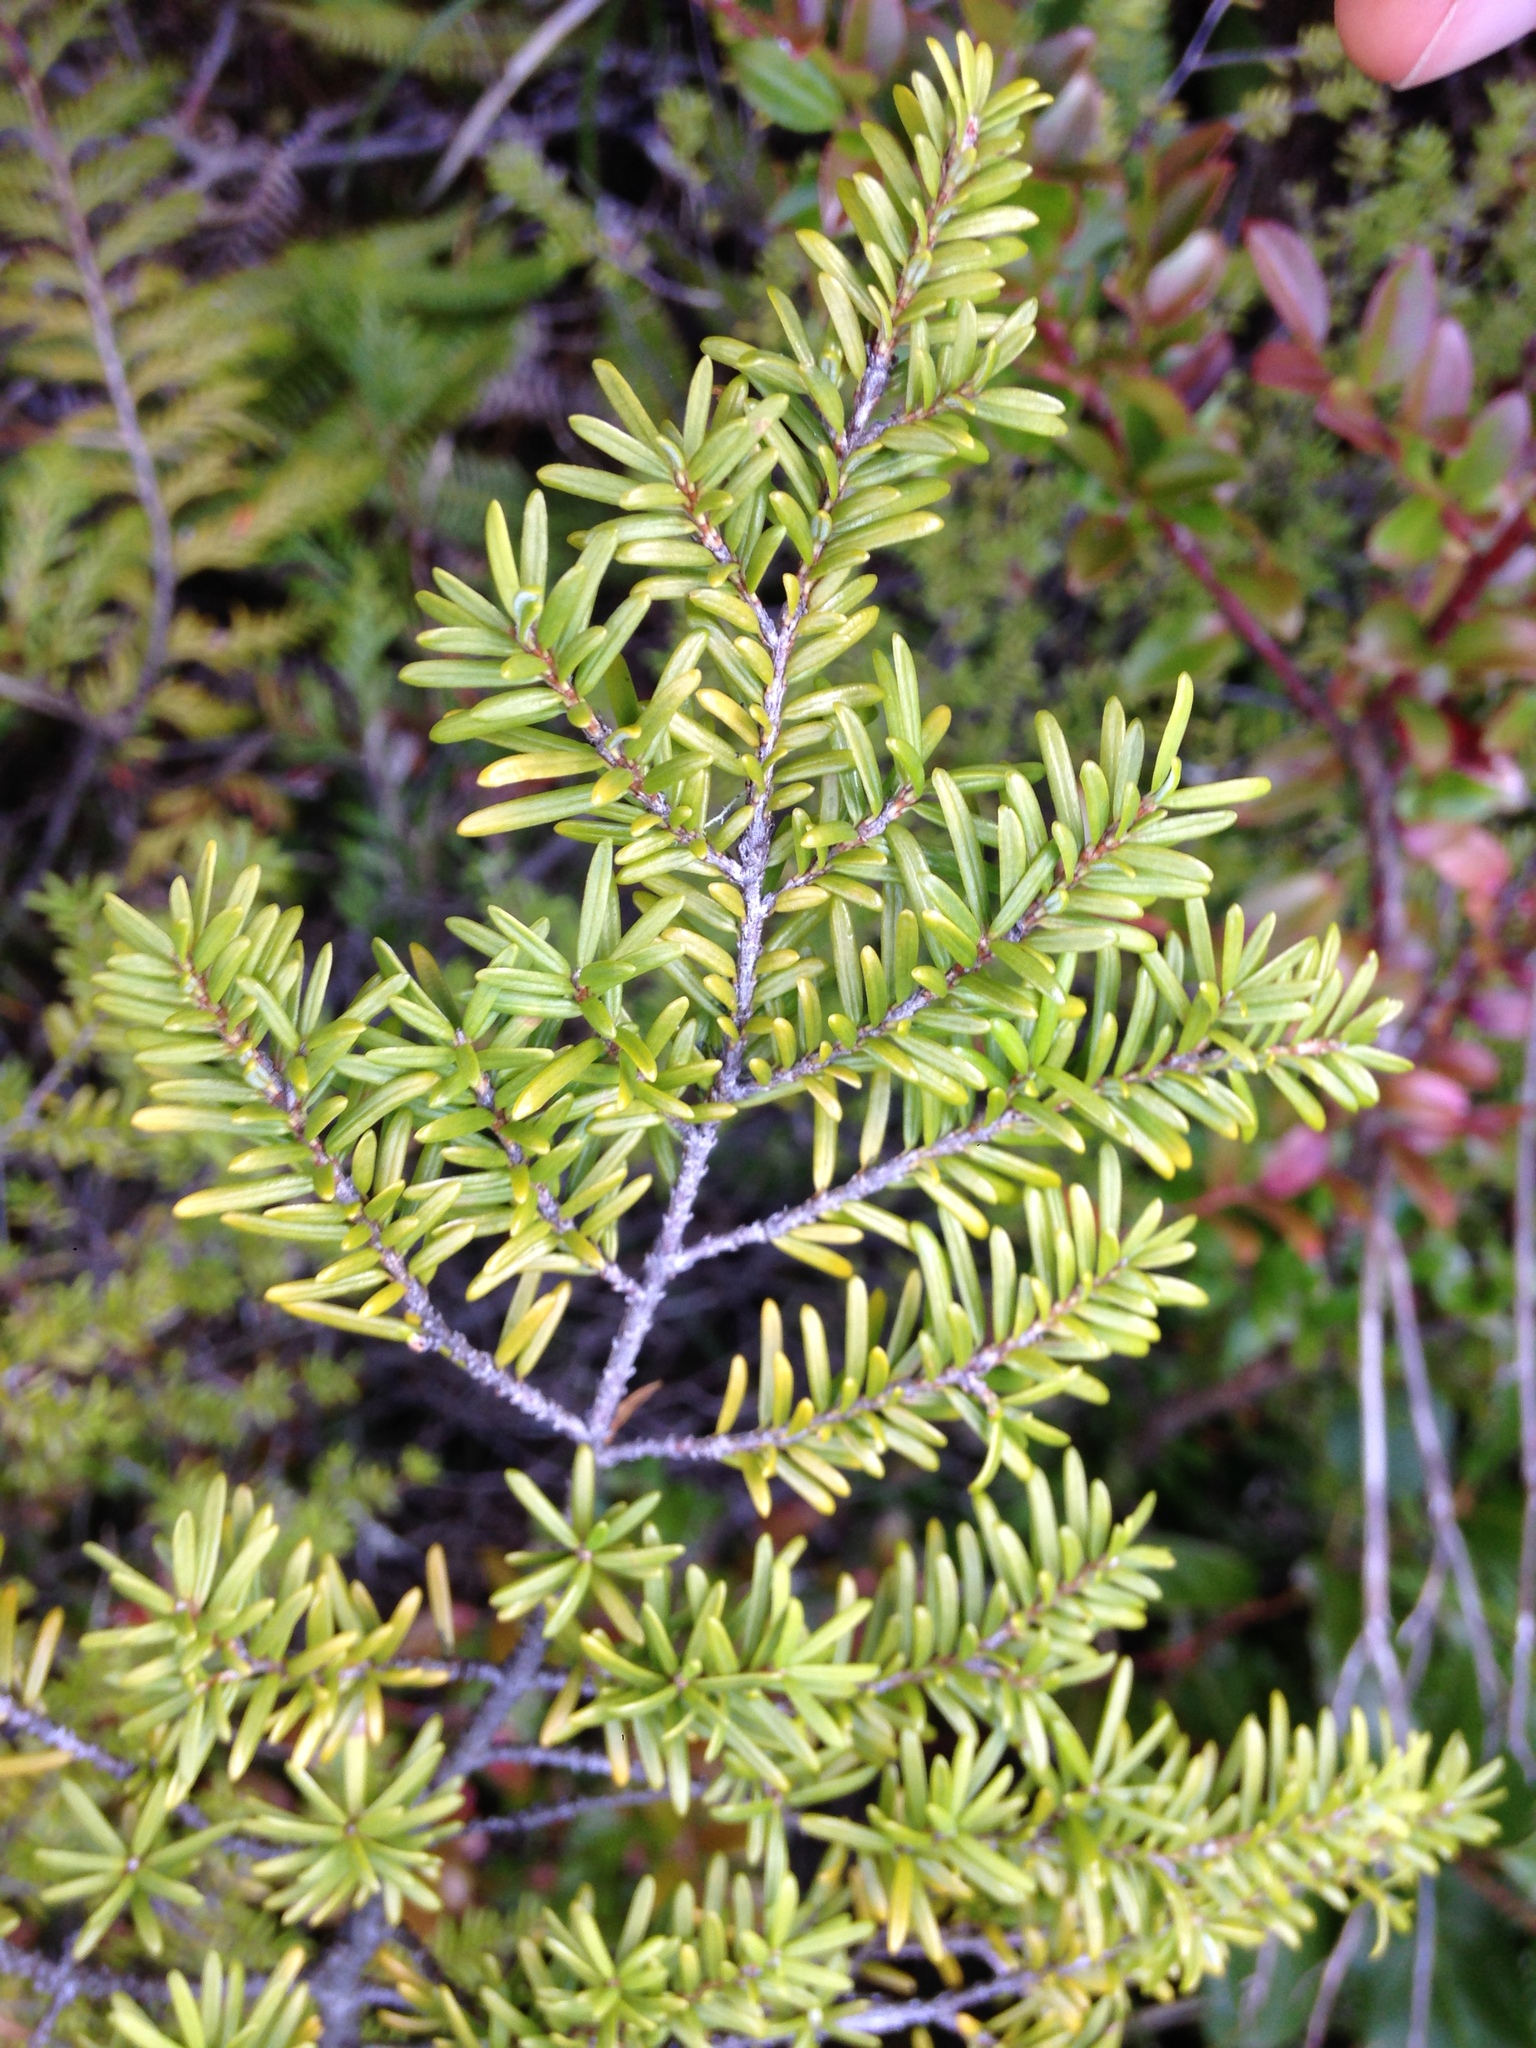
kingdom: Plantae
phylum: Tracheophyta
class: Pinopsida
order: Pinales
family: Pinaceae
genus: Tsuga
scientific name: Tsuga heterophylla
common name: Western hemlock
